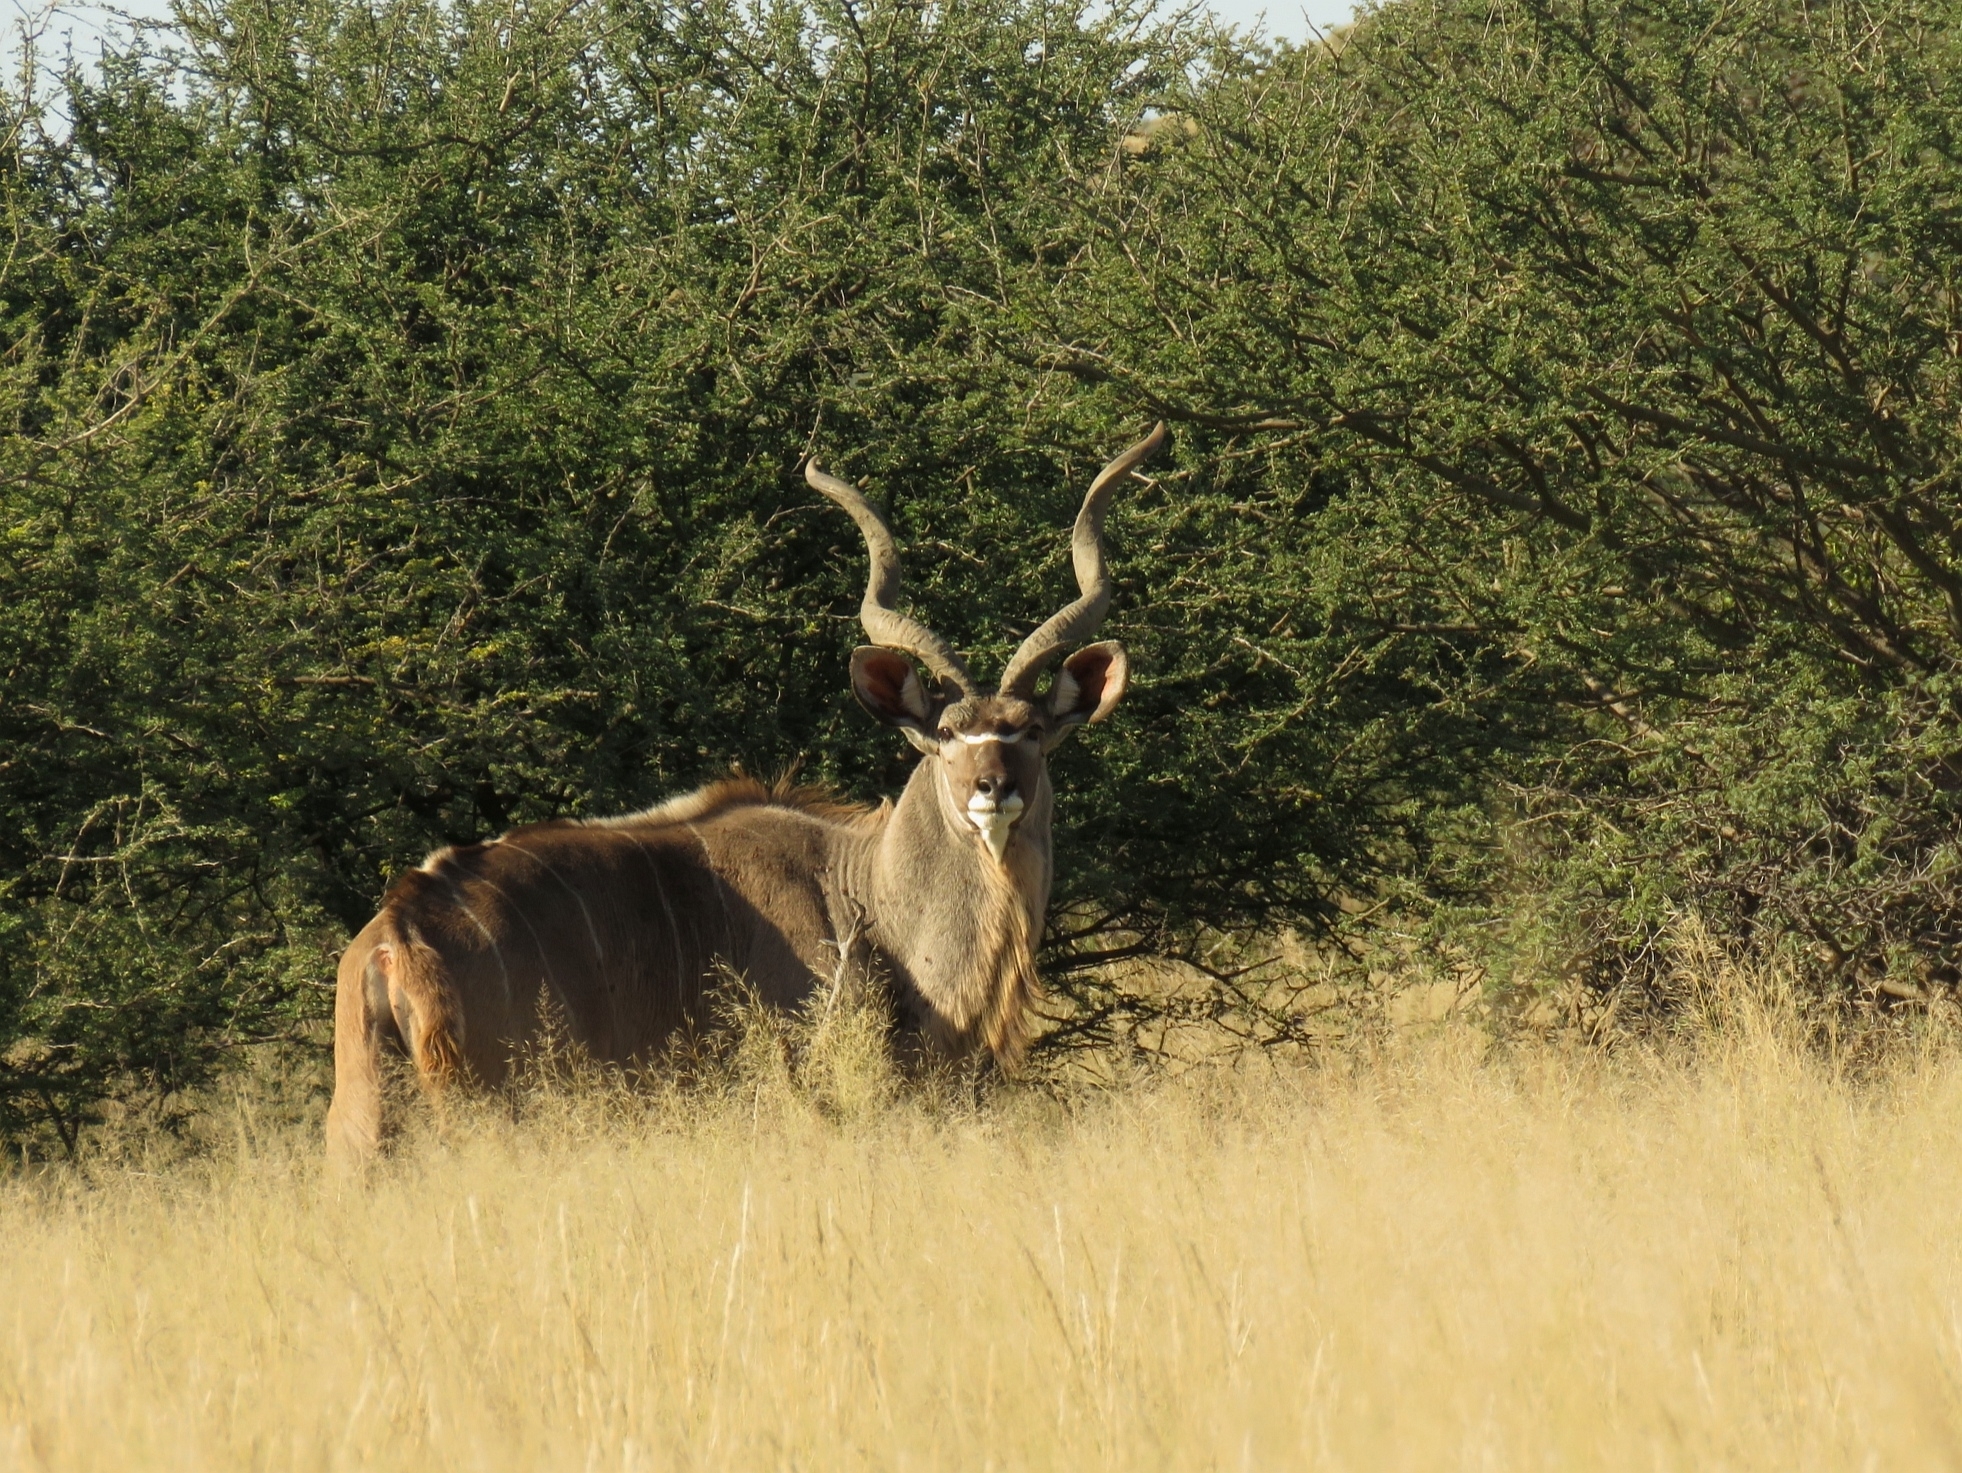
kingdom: Animalia
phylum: Chordata
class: Mammalia
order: Artiodactyla
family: Bovidae
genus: Tragelaphus
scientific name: Tragelaphus strepsiceros
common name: Greater kudu
